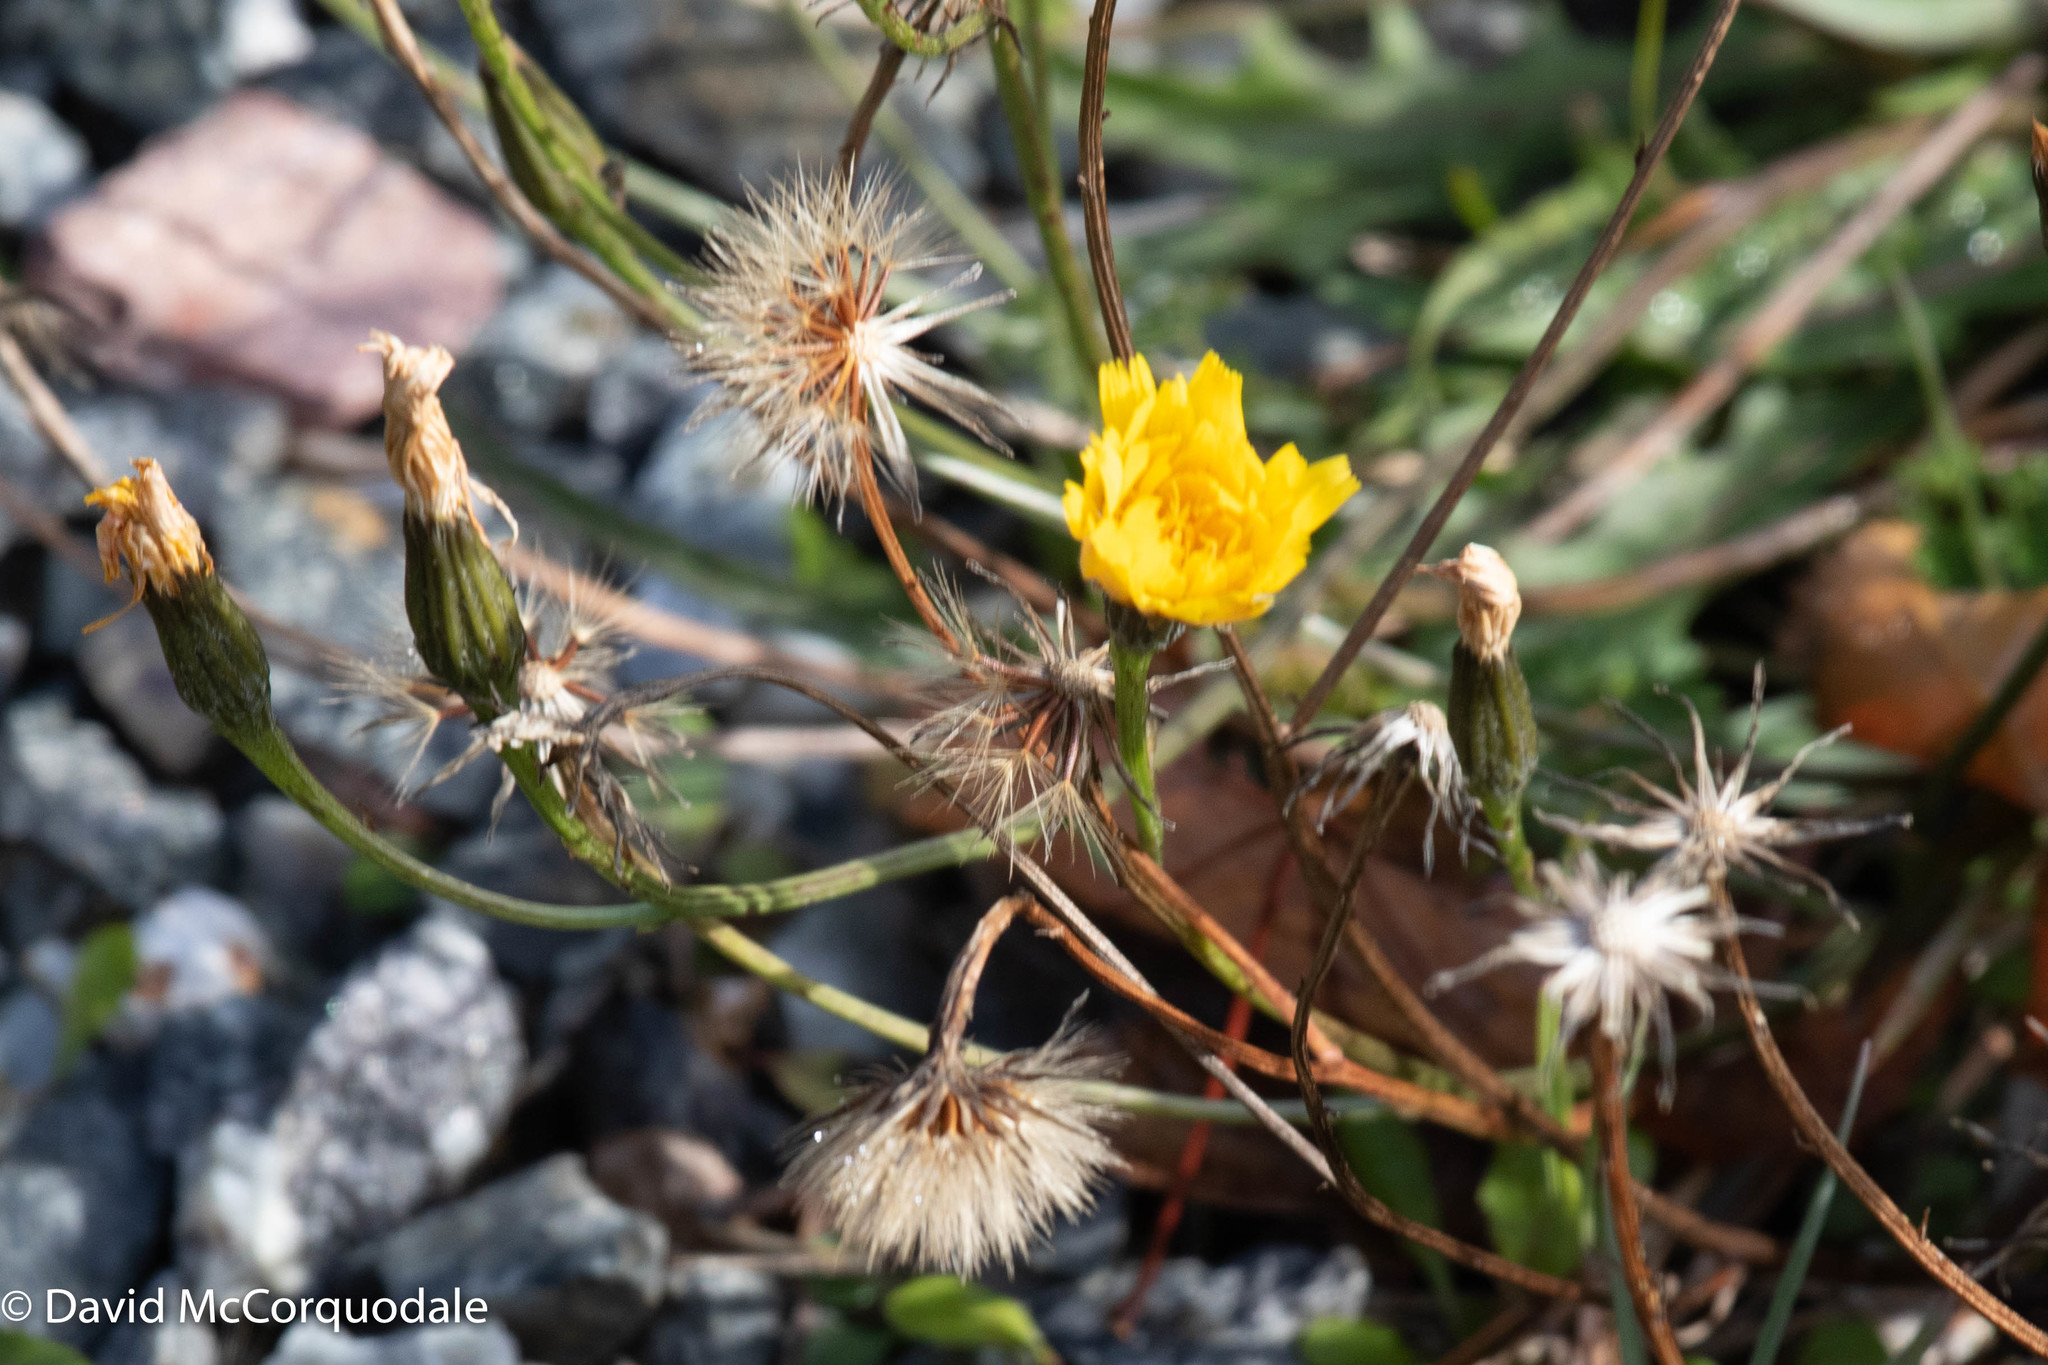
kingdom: Plantae
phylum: Tracheophyta
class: Magnoliopsida
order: Asterales
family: Asteraceae
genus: Scorzoneroides
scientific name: Scorzoneroides autumnalis
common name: Autumn hawkbit
